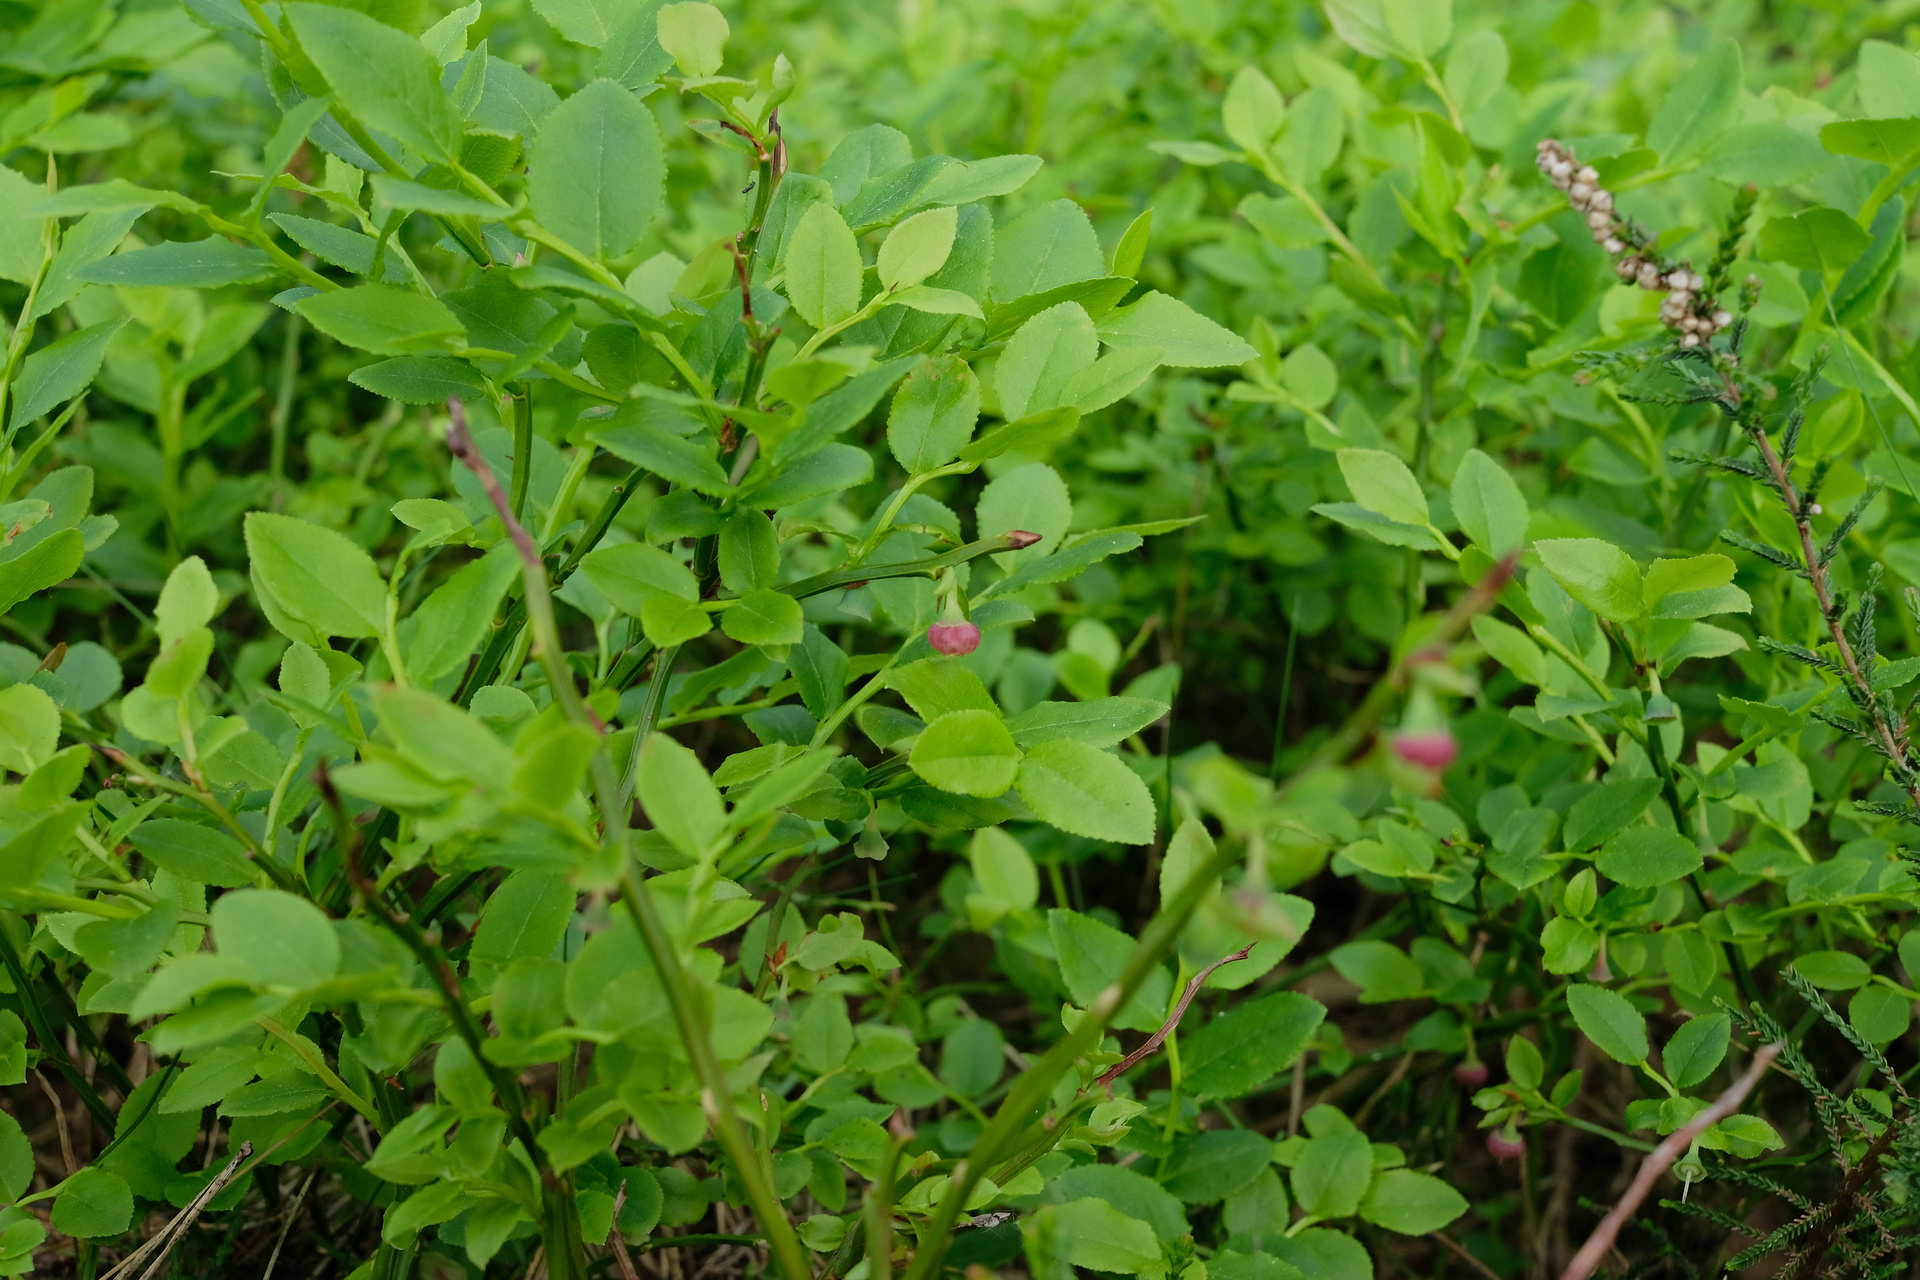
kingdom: Plantae
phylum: Tracheophyta
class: Magnoliopsida
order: Ericales
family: Ericaceae
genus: Vaccinium
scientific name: Vaccinium myrtillus
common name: Bilberry
